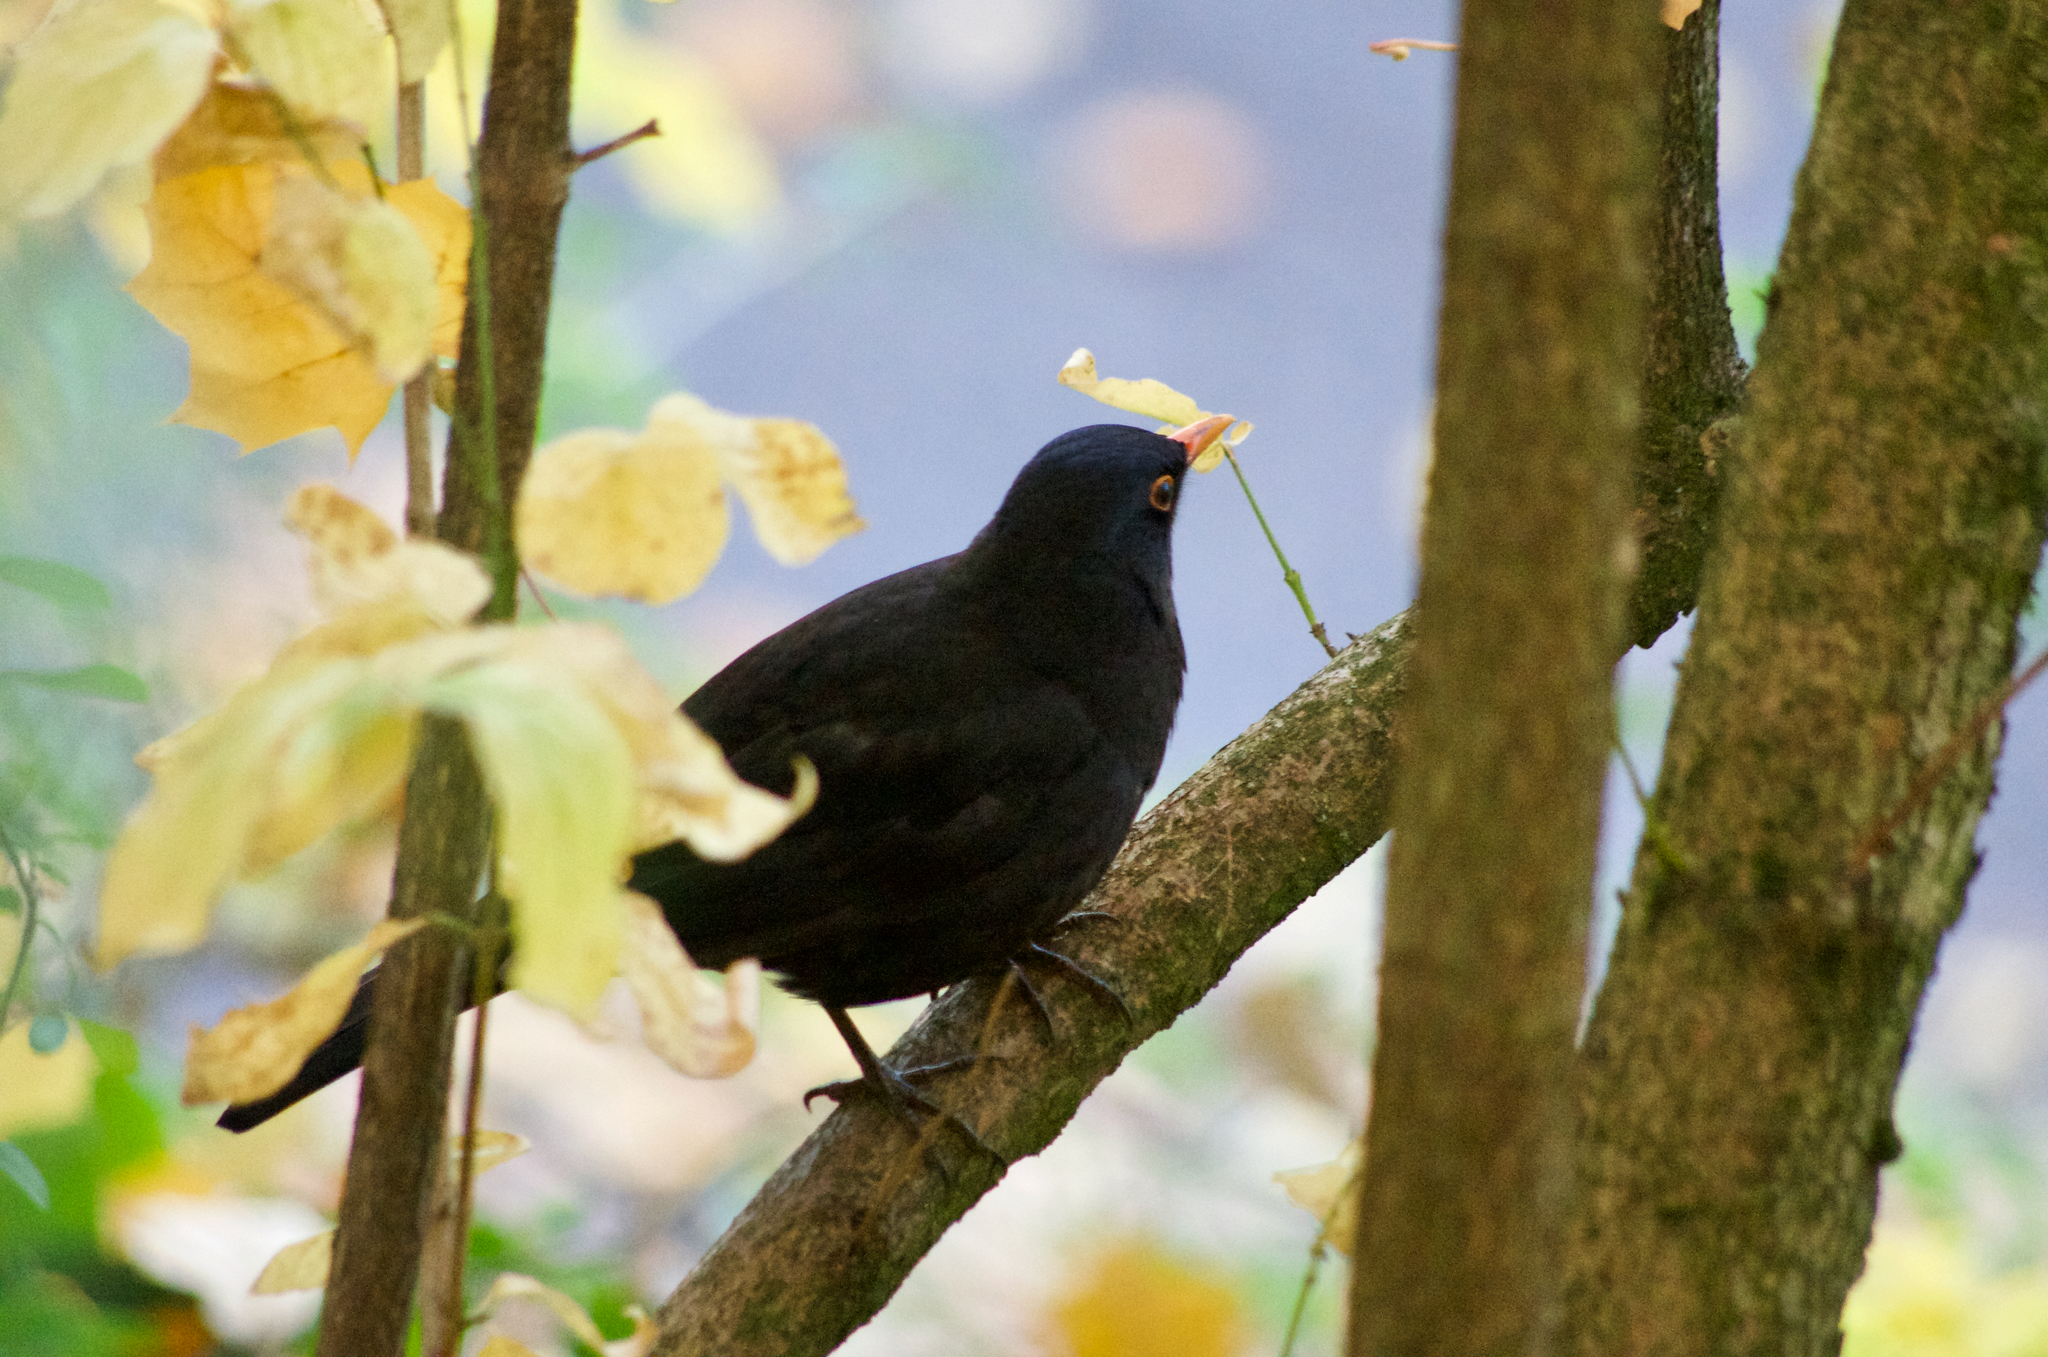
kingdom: Animalia
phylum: Chordata
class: Aves
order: Passeriformes
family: Turdidae
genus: Turdus
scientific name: Turdus merula
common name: Common blackbird
